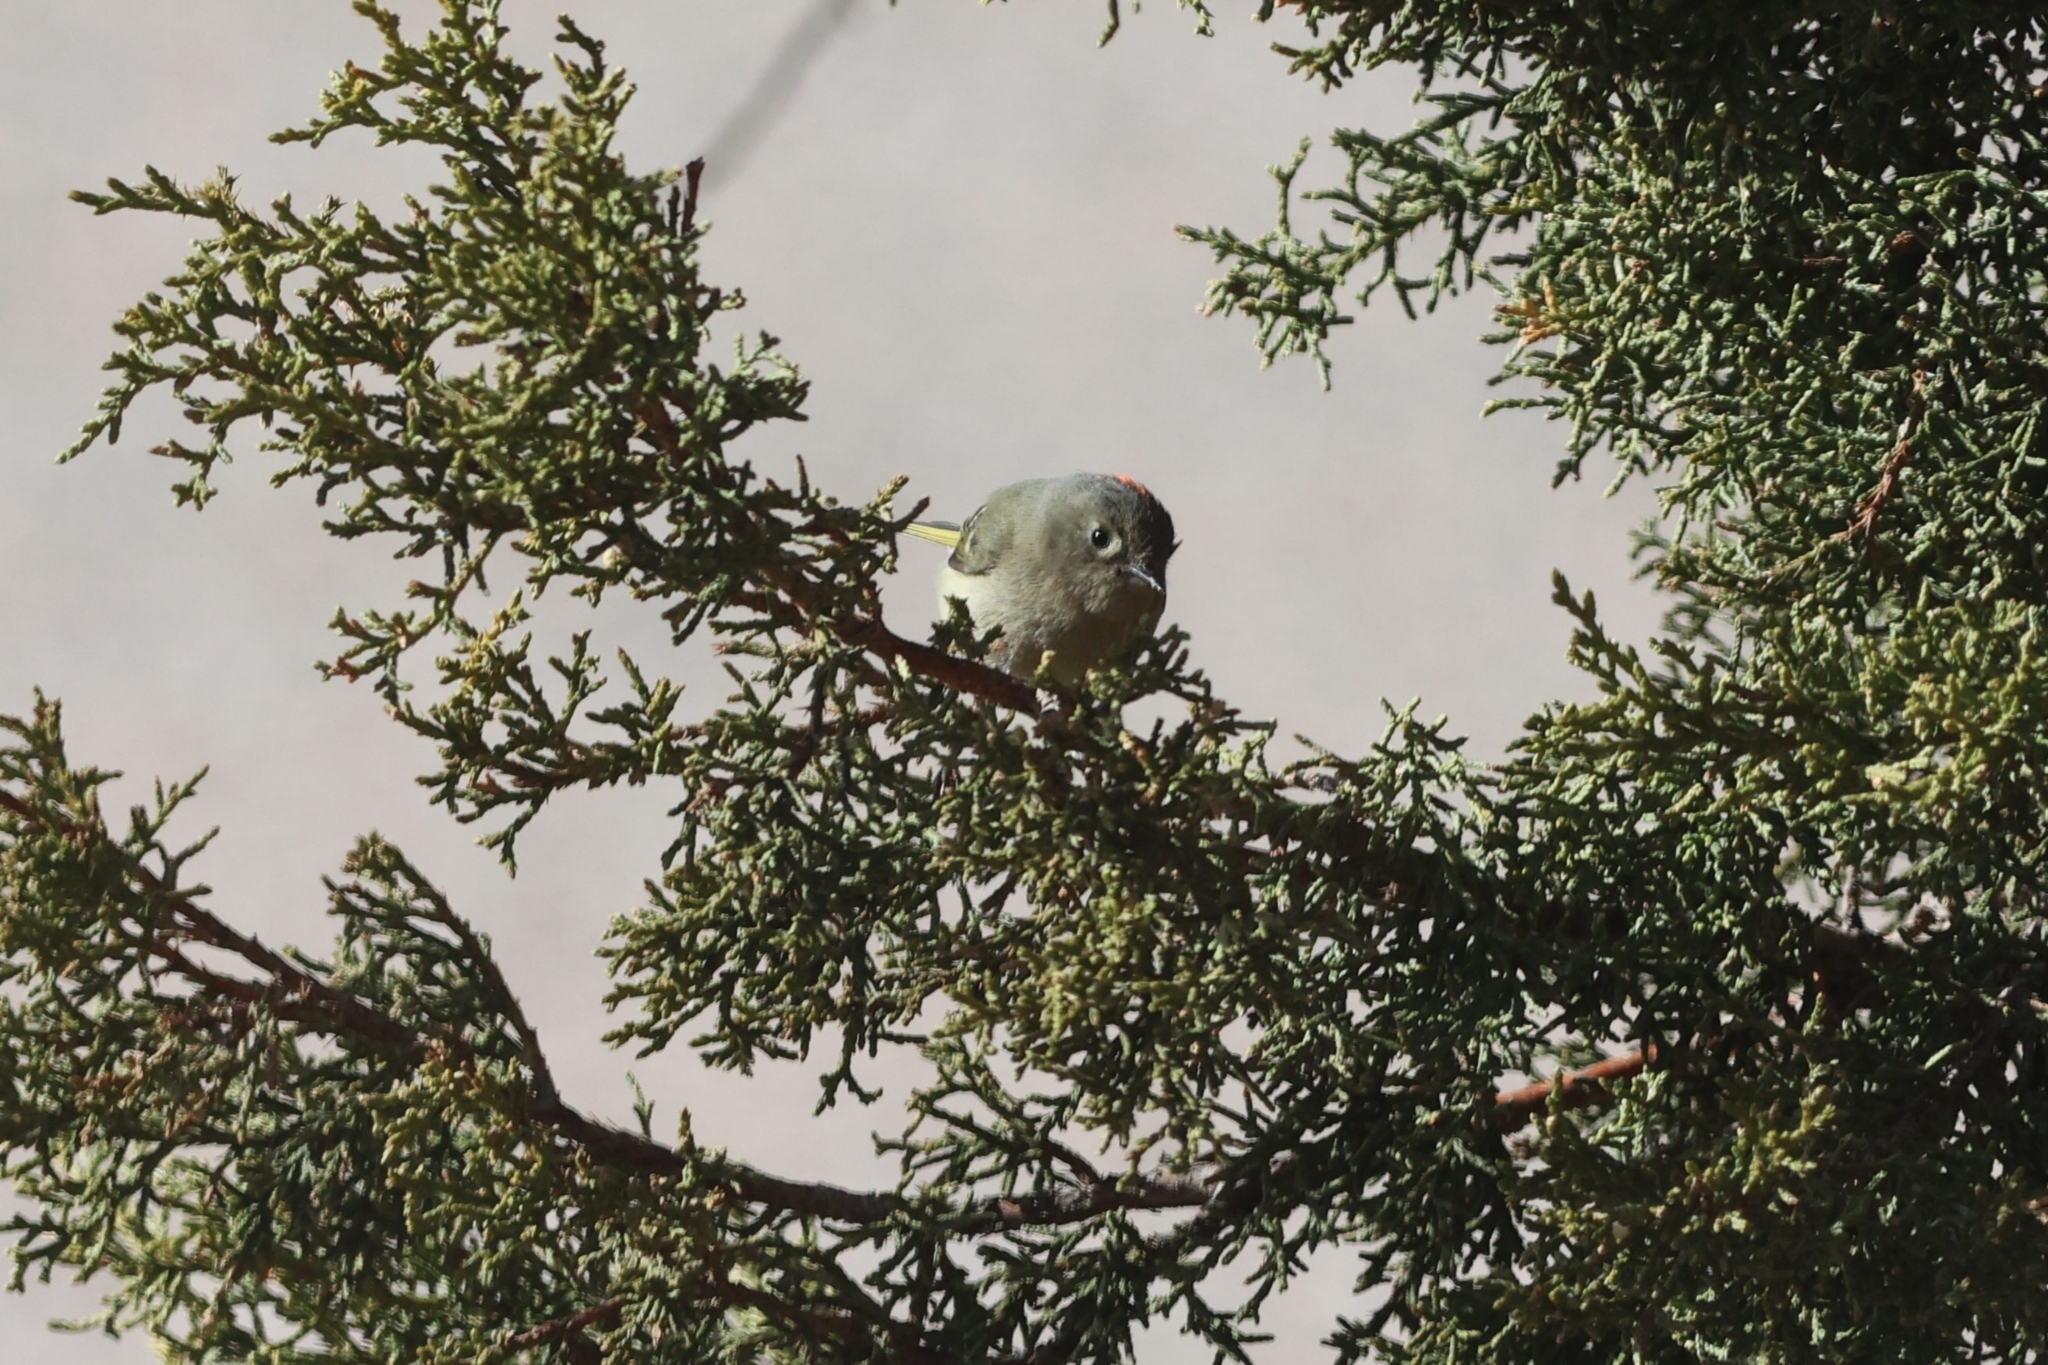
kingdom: Animalia
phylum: Chordata
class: Aves
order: Passeriformes
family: Regulidae
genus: Regulus
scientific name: Regulus calendula
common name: Ruby-crowned kinglet
